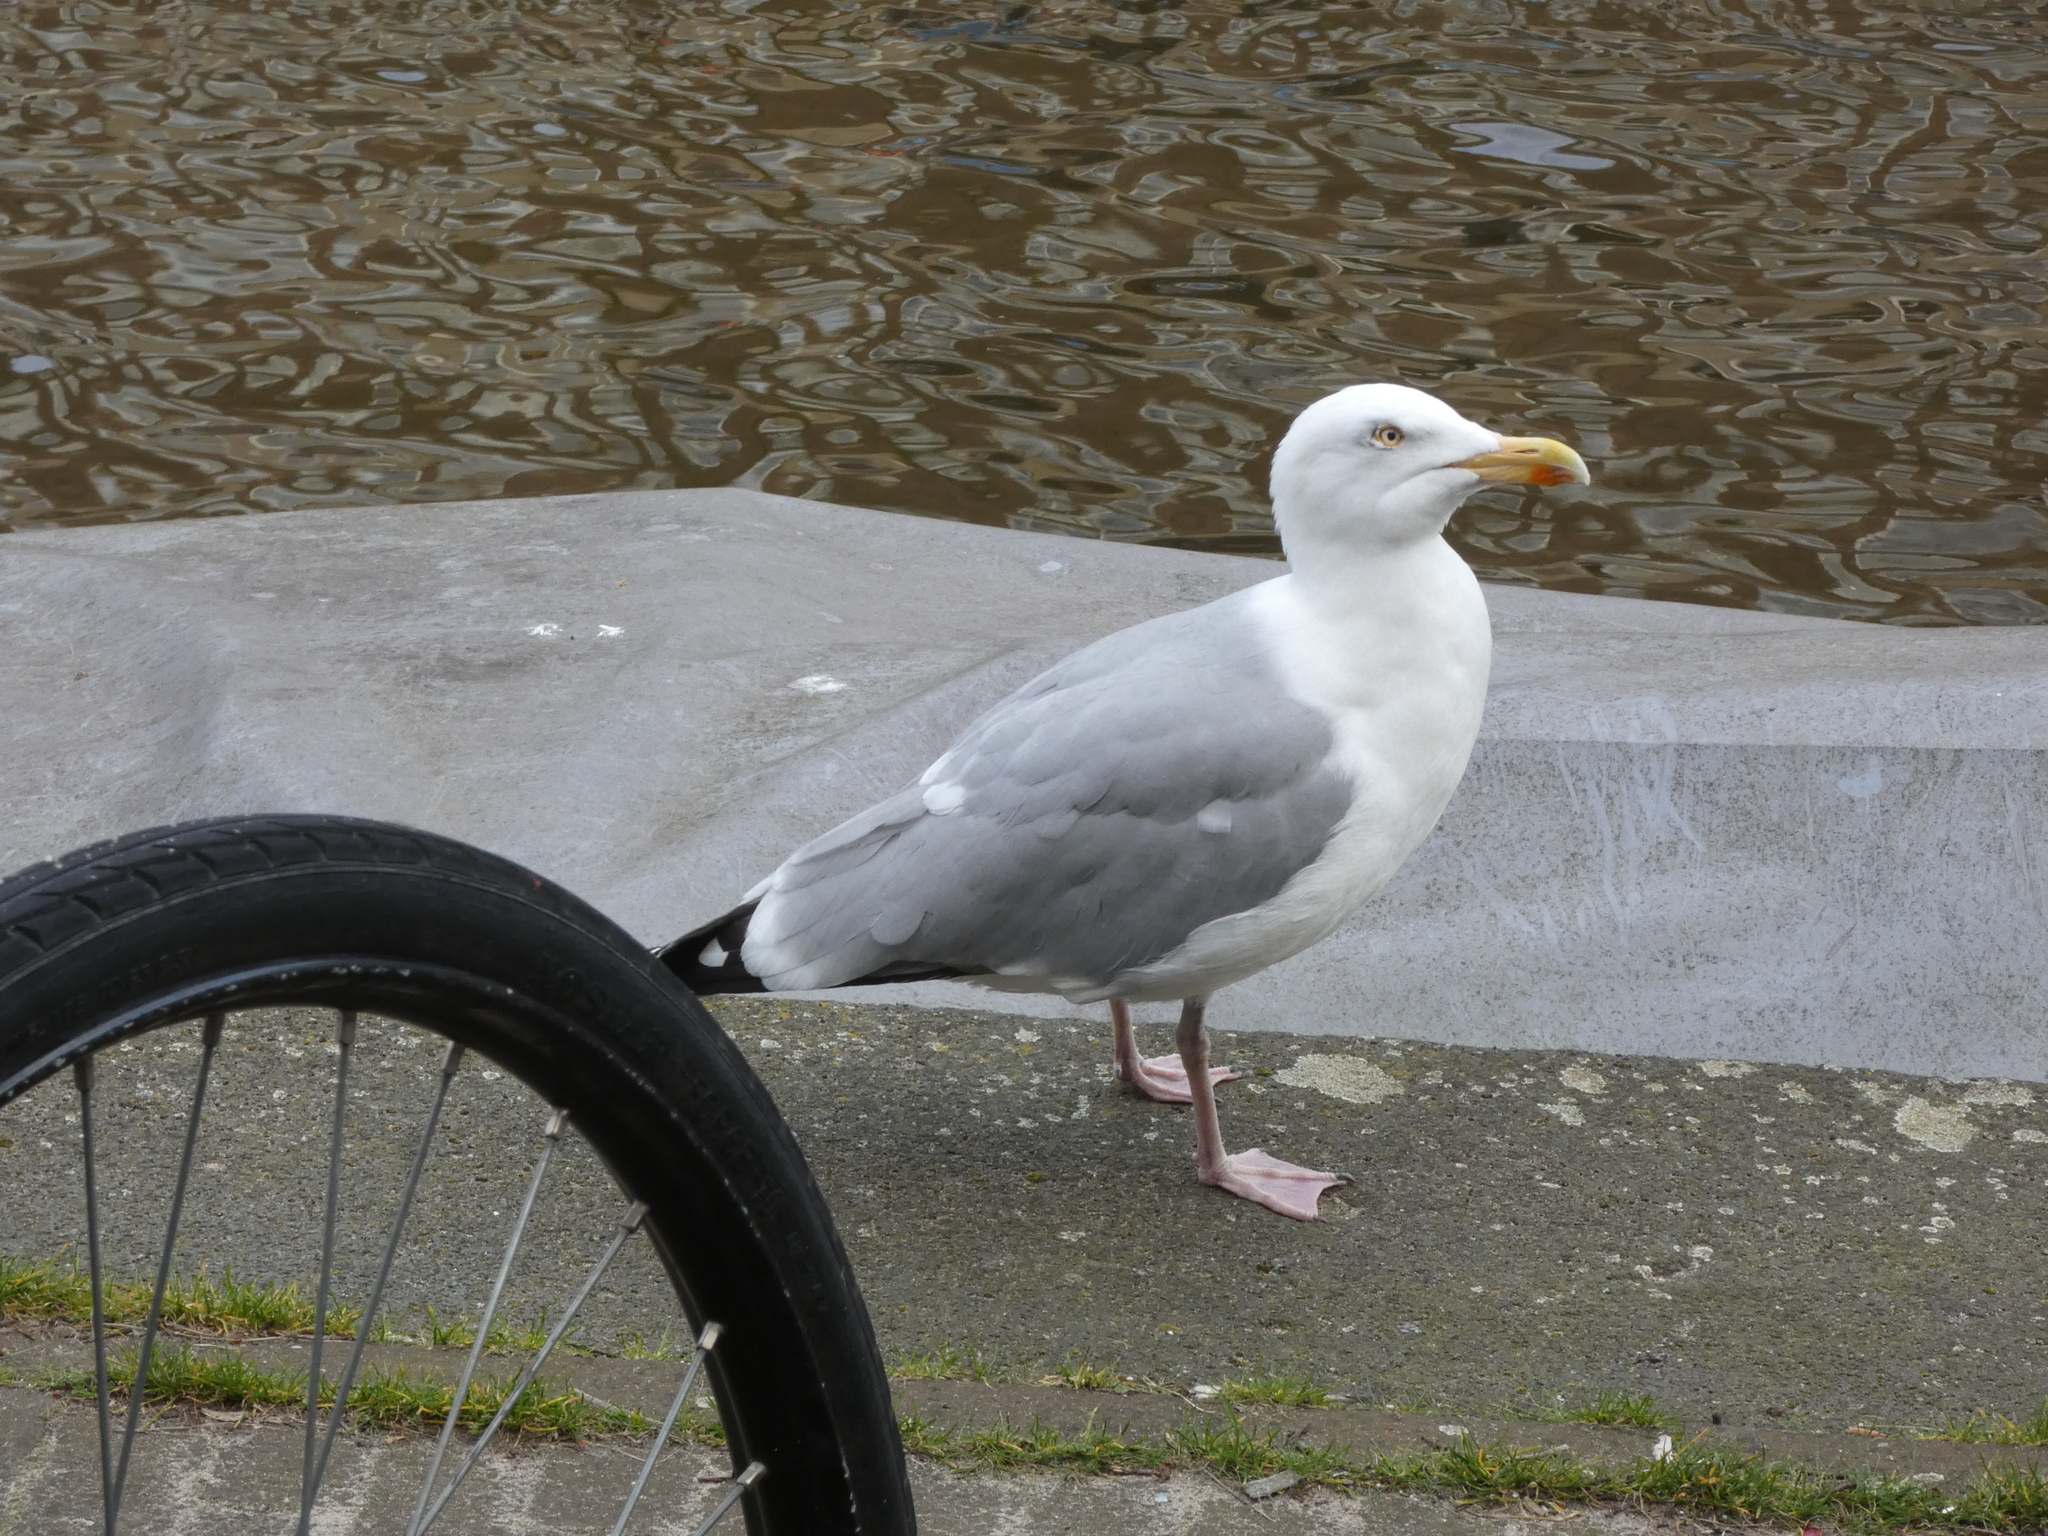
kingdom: Animalia
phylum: Chordata
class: Aves
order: Charadriiformes
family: Laridae
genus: Larus
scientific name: Larus argentatus
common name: Herring gull
